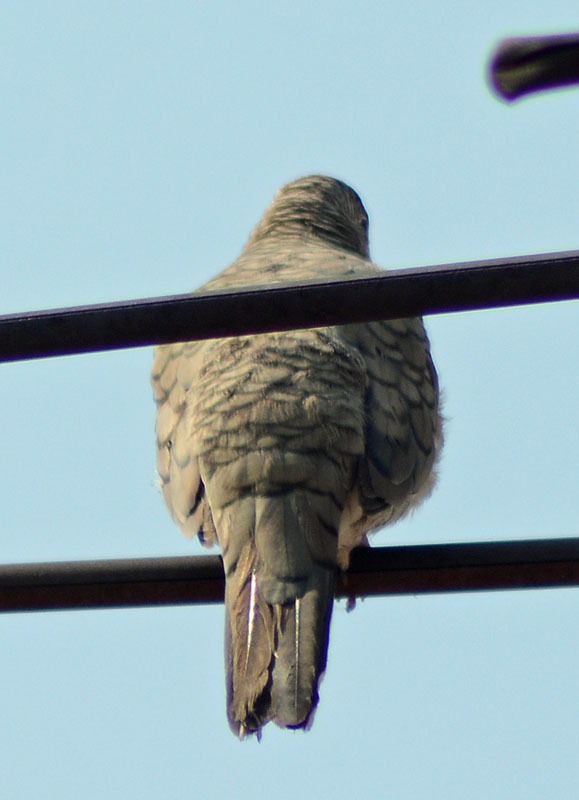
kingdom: Animalia
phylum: Chordata
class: Aves
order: Columbiformes
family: Columbidae
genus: Columbina
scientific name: Columbina inca
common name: Inca dove
